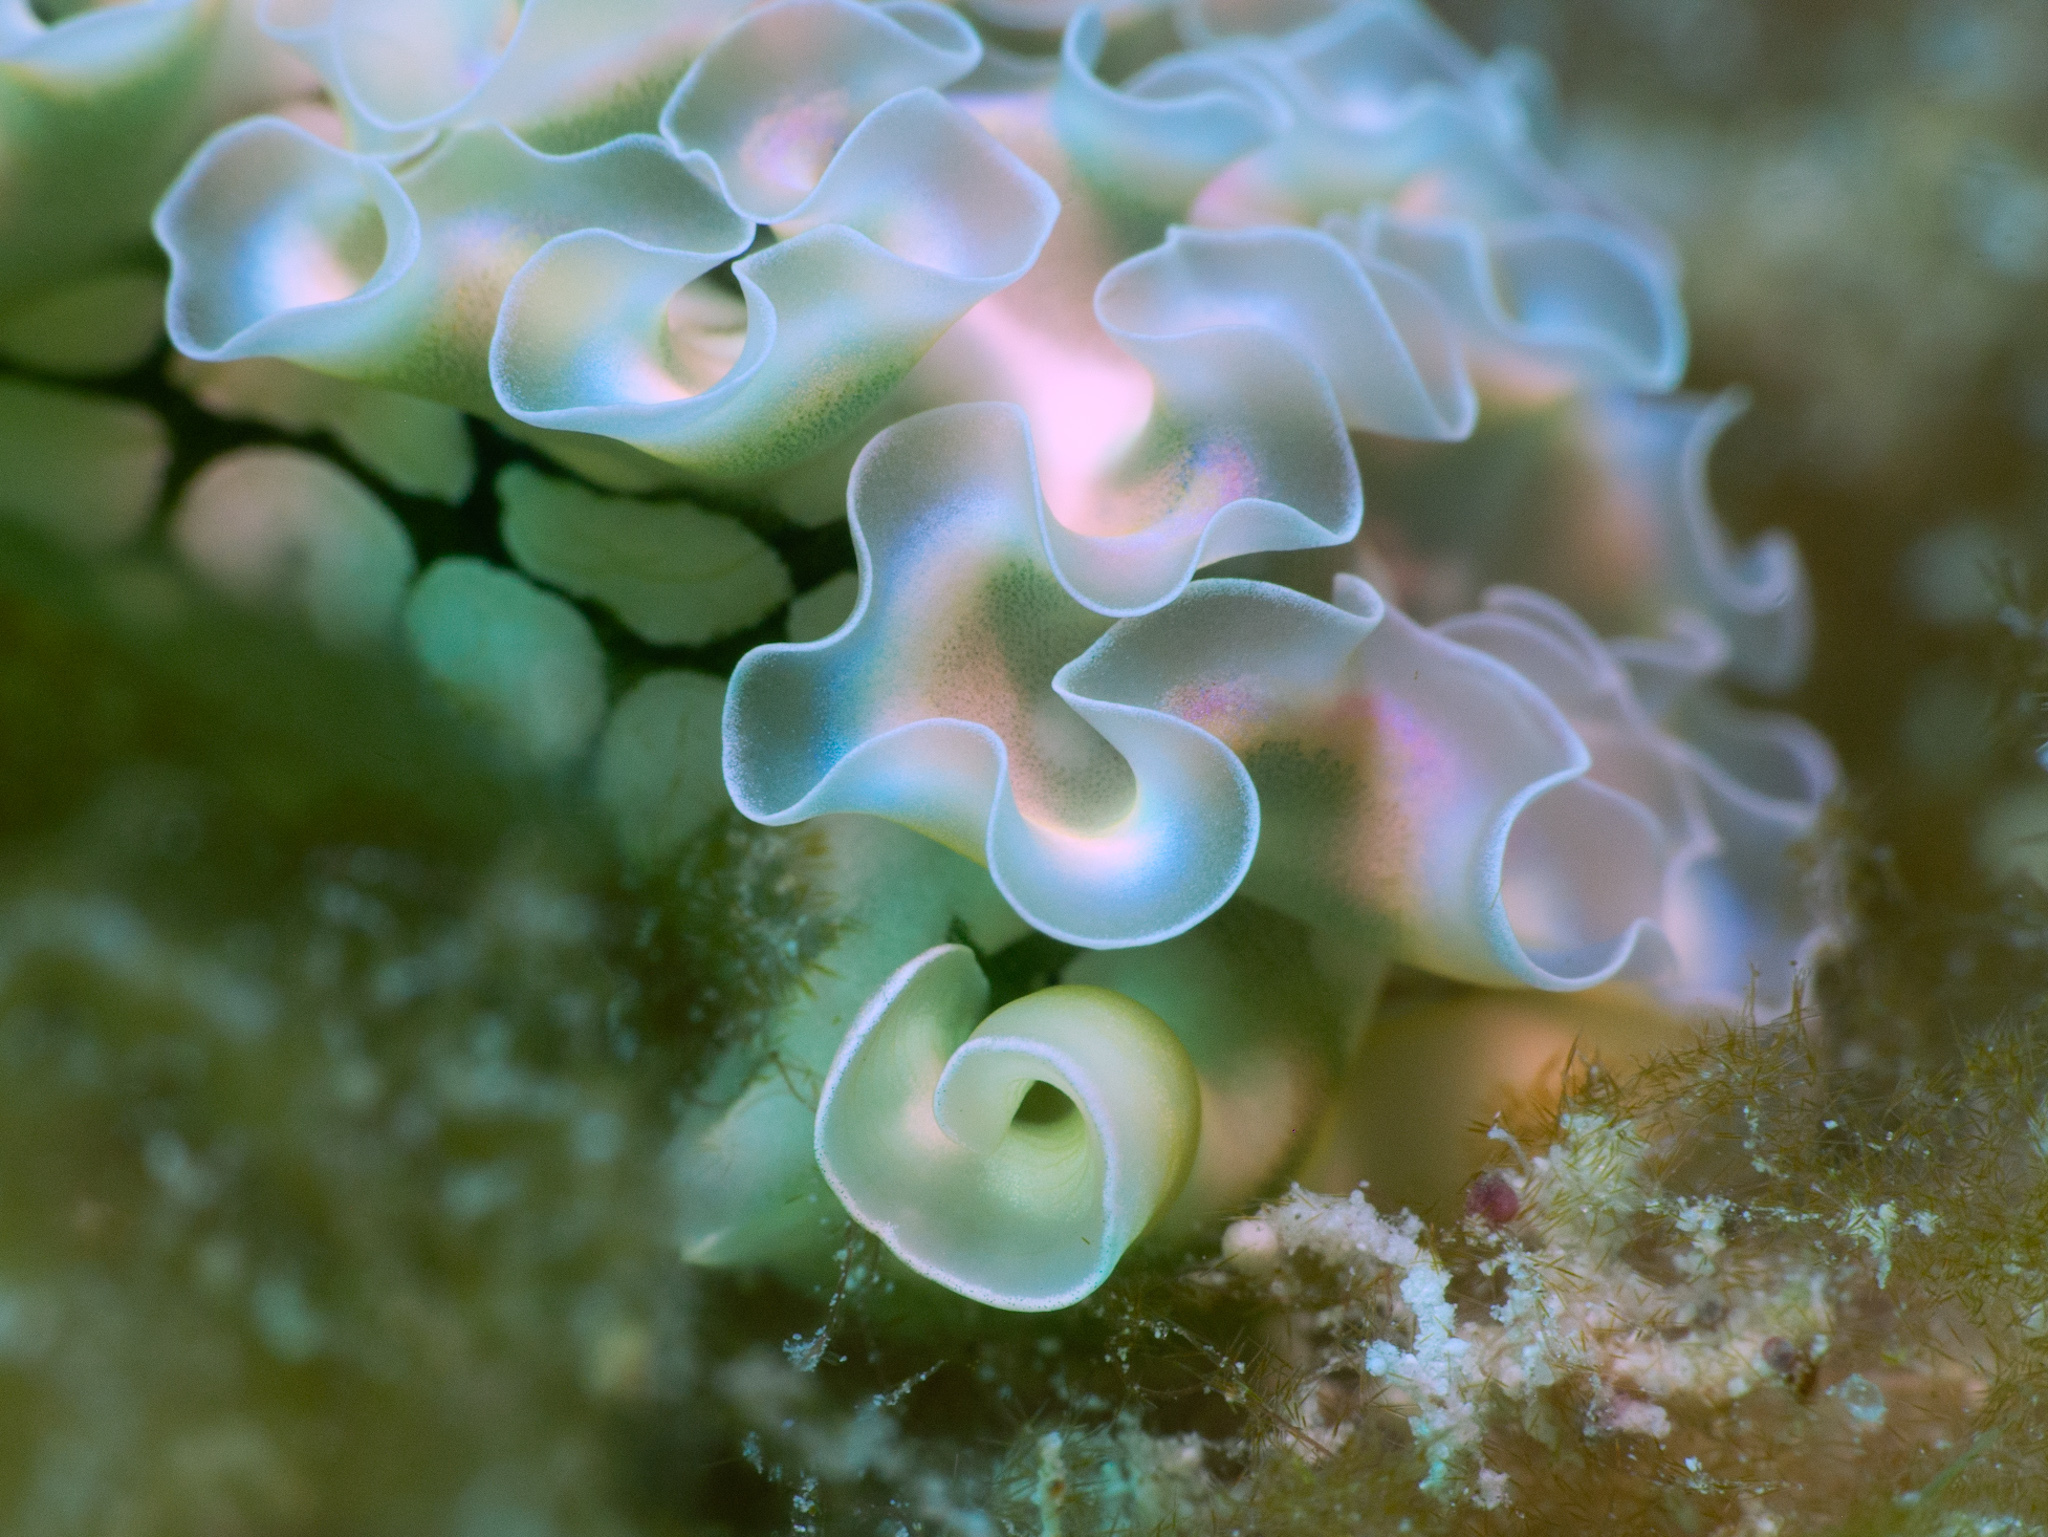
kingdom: Animalia
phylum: Mollusca
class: Gastropoda
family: Plakobranchidae
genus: Elysia
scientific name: Elysia crispata
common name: Lettuce slug
